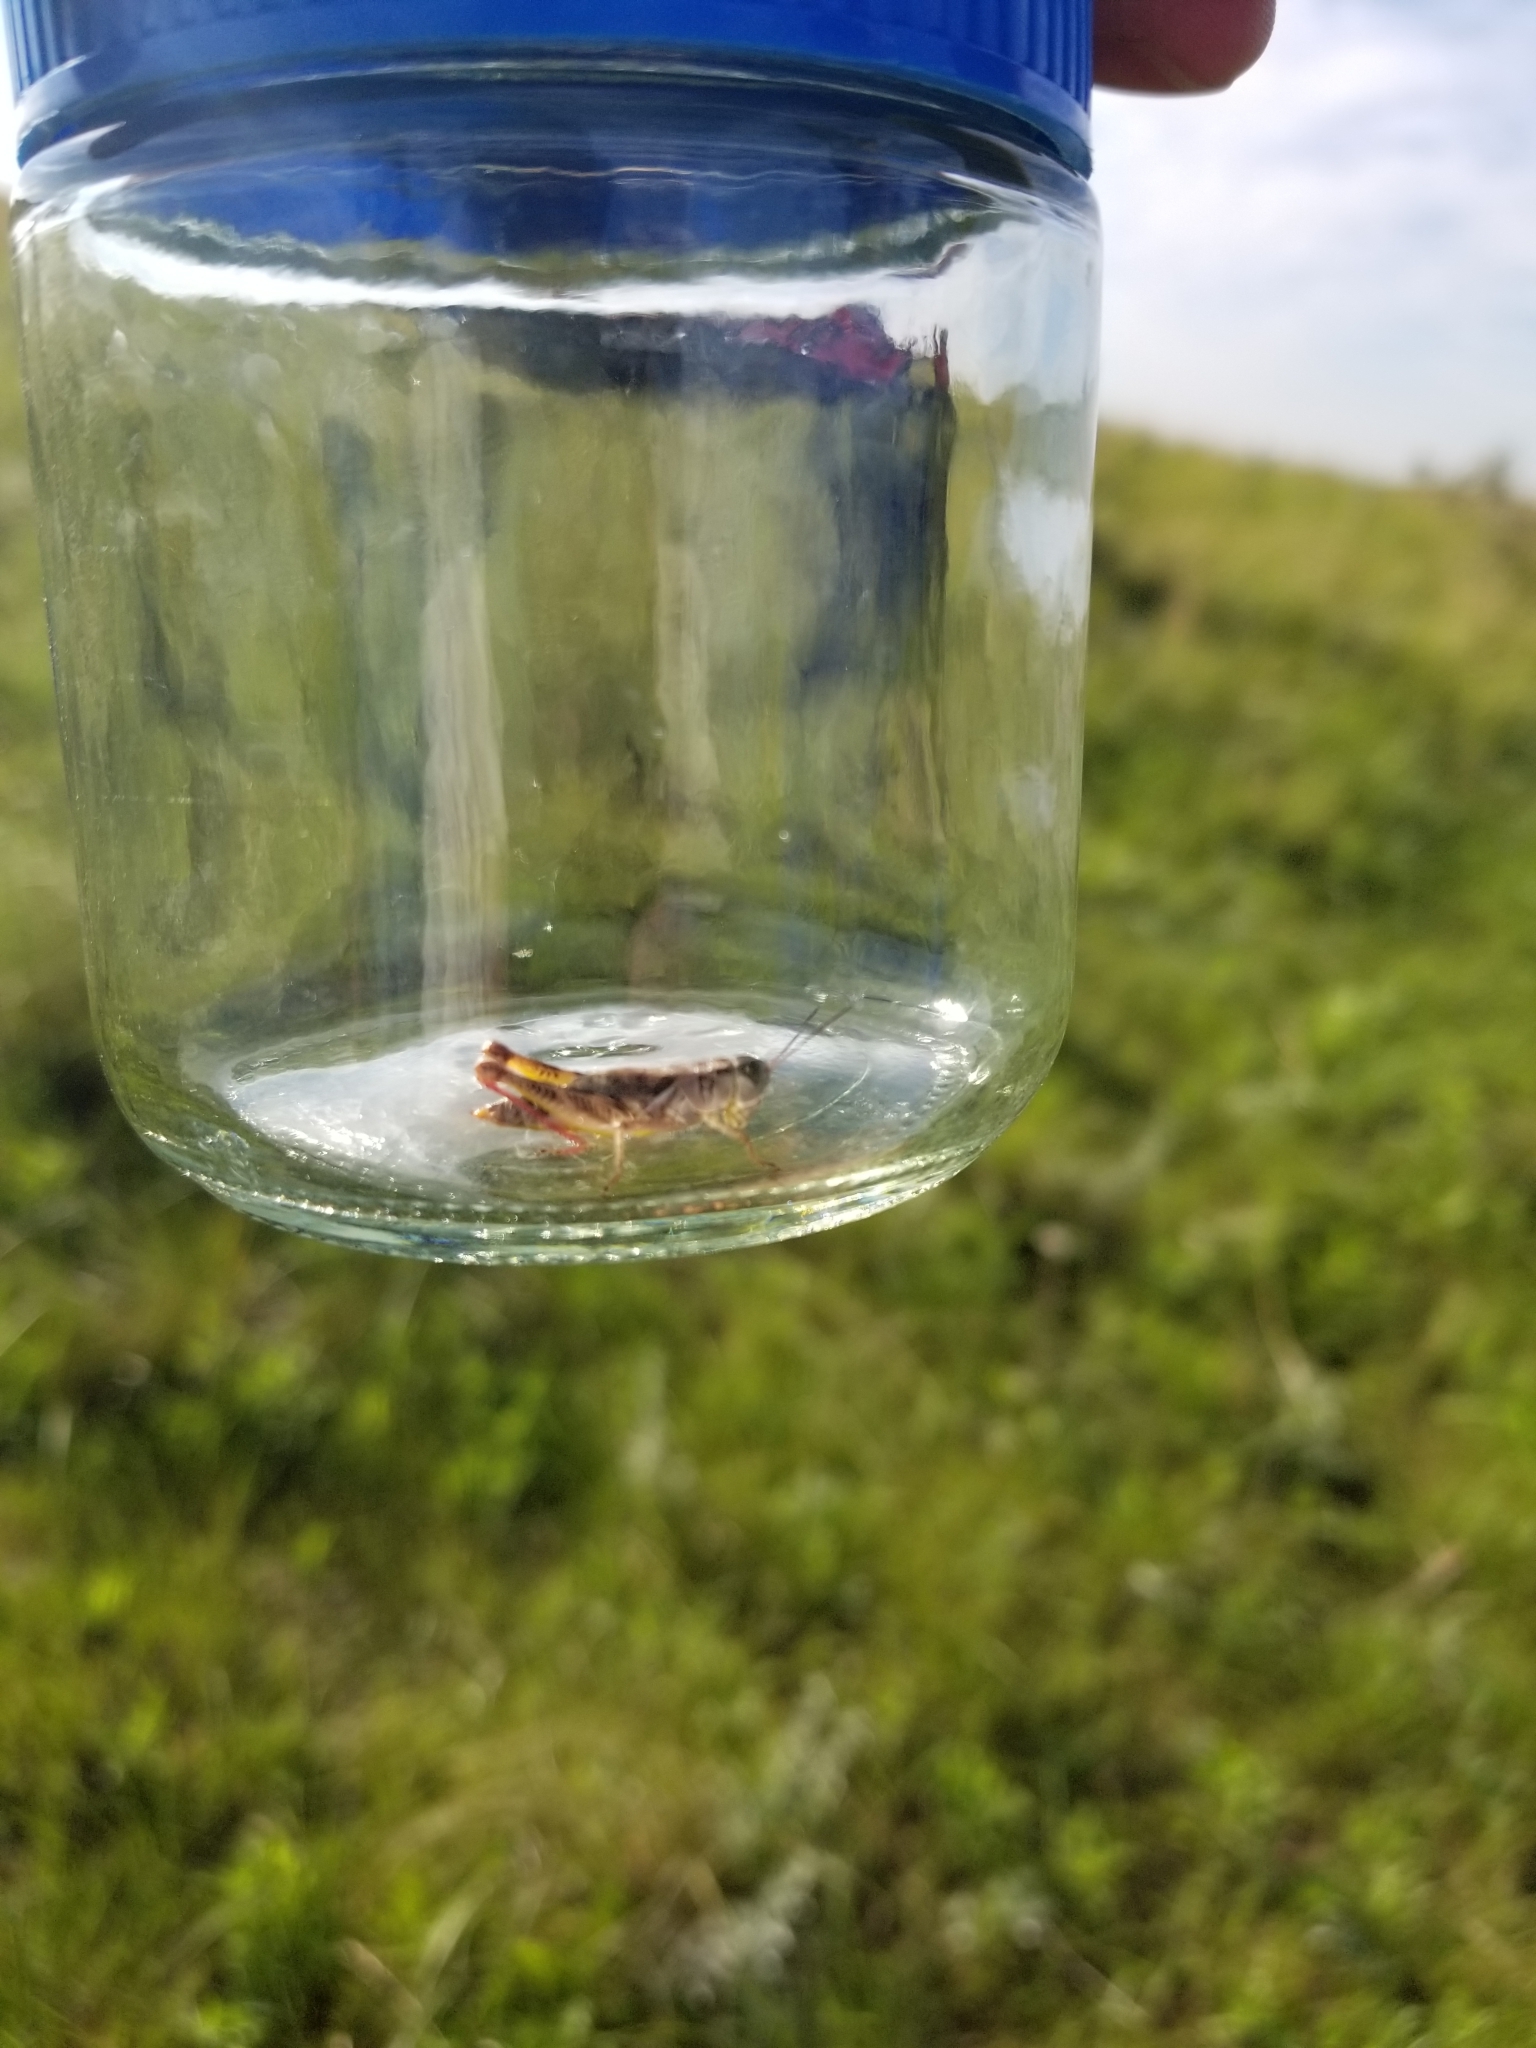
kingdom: Animalia
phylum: Arthropoda
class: Insecta
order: Orthoptera
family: Acrididae
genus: Melanoplus
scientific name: Melanoplus dawsoni
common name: Dawson grasshopper
